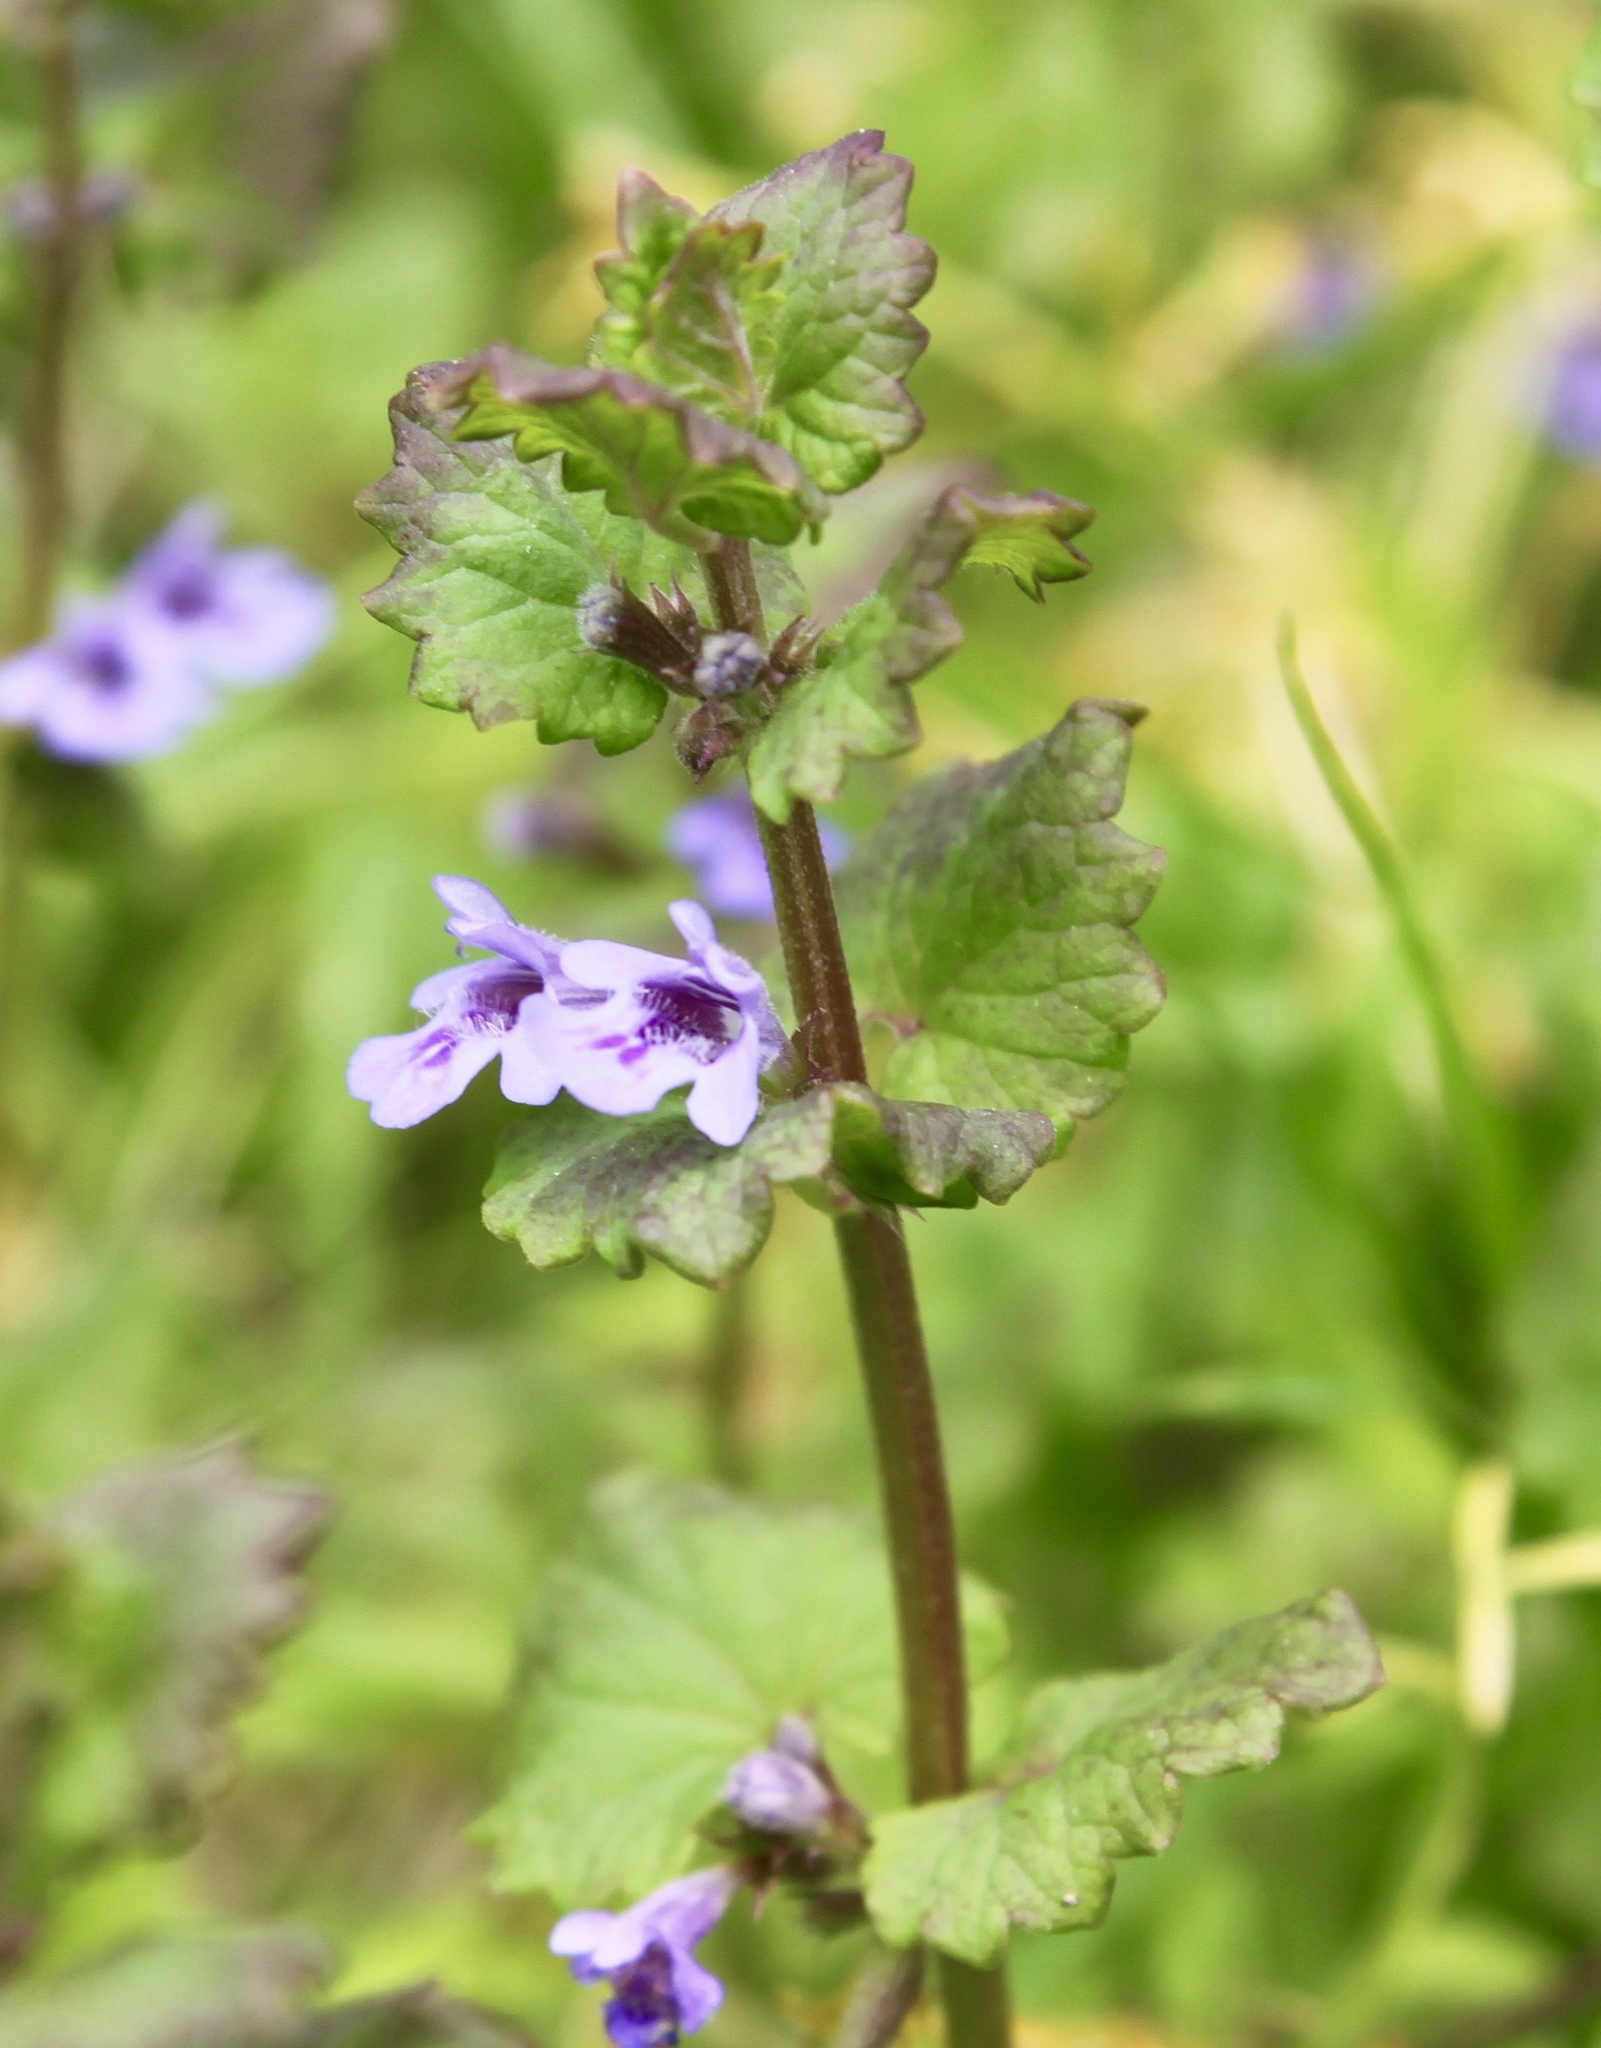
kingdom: Plantae
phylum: Tracheophyta
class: Magnoliopsida
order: Lamiales
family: Lamiaceae
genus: Glechoma
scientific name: Glechoma hederacea
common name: Ground ivy
